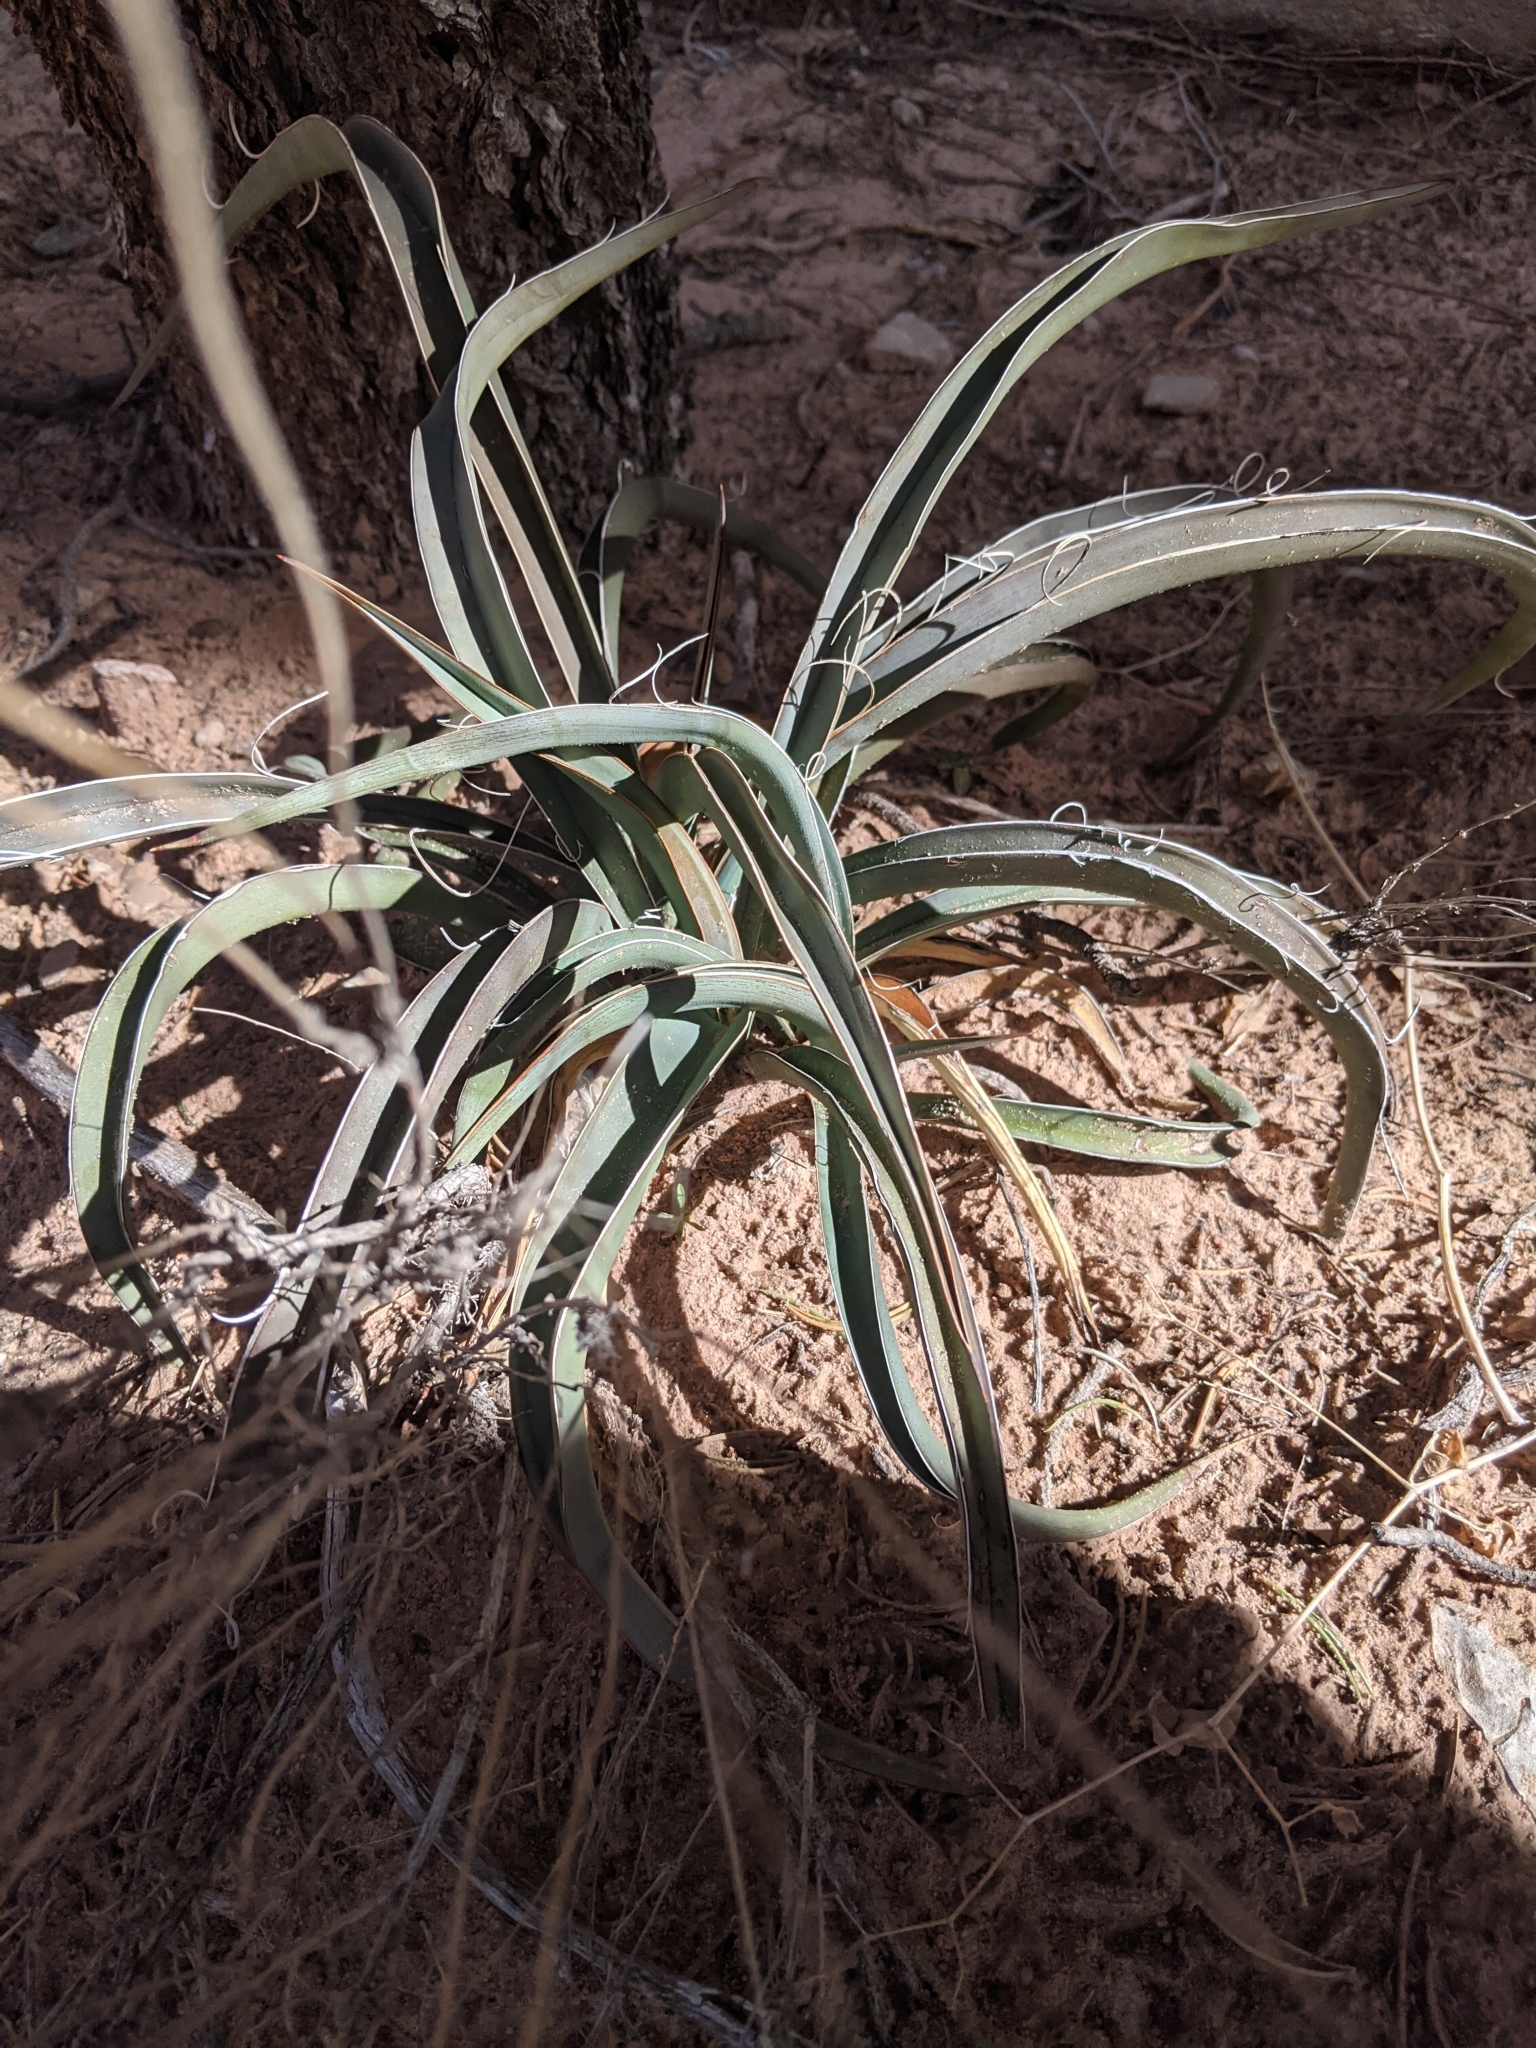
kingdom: Plantae
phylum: Tracheophyta
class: Liliopsida
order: Asparagales
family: Asparagaceae
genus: Yucca
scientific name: Yucca baccata
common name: Banana yucca
